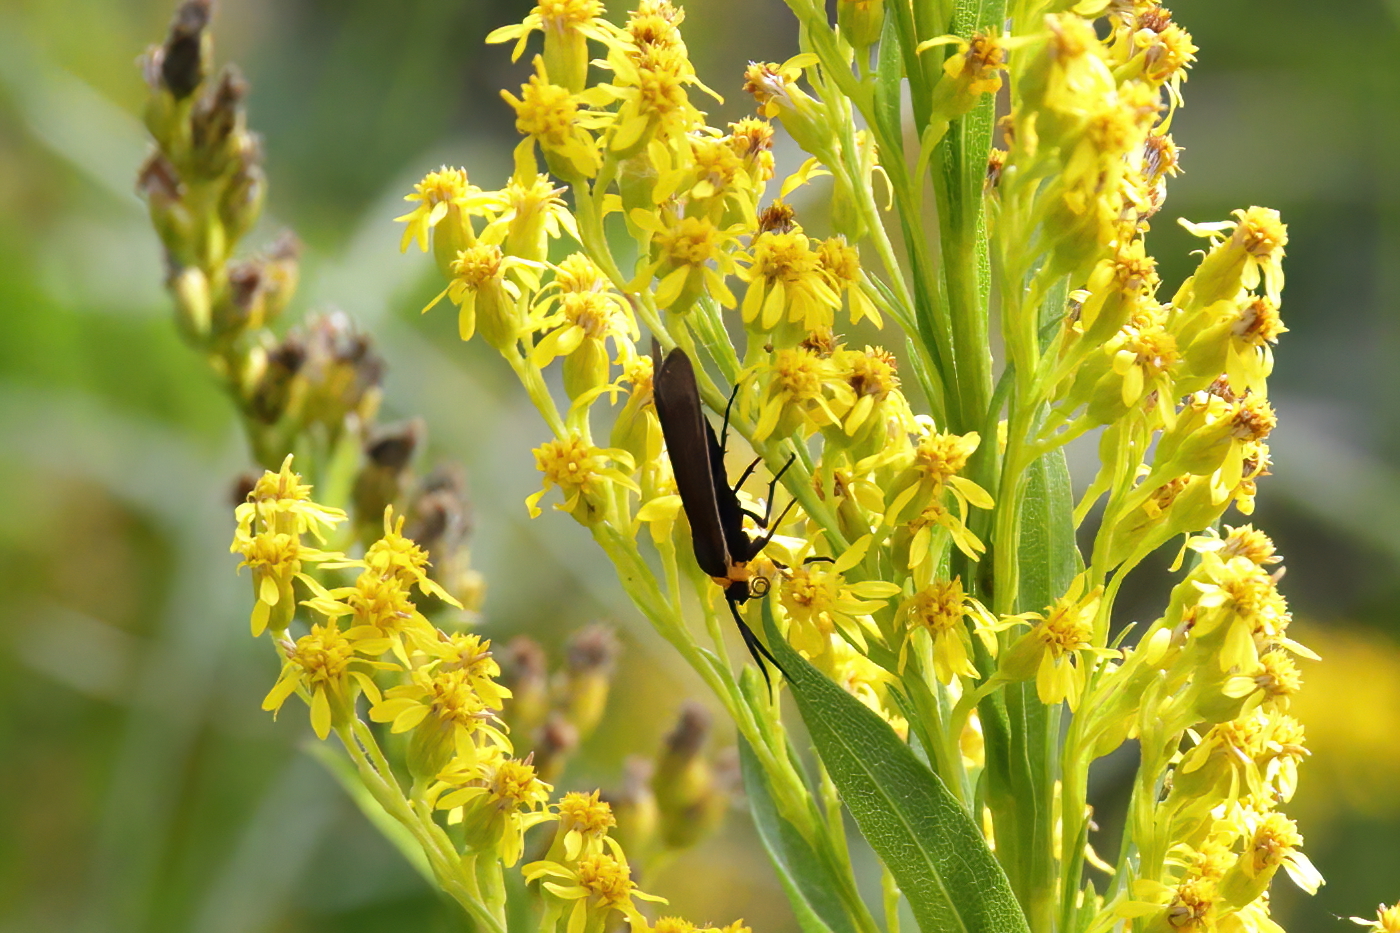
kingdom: Animalia
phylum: Arthropoda
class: Insecta
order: Lepidoptera
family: Erebidae
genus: Cisseps
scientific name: Cisseps fulvicollis
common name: Yellow-collared scape moth
